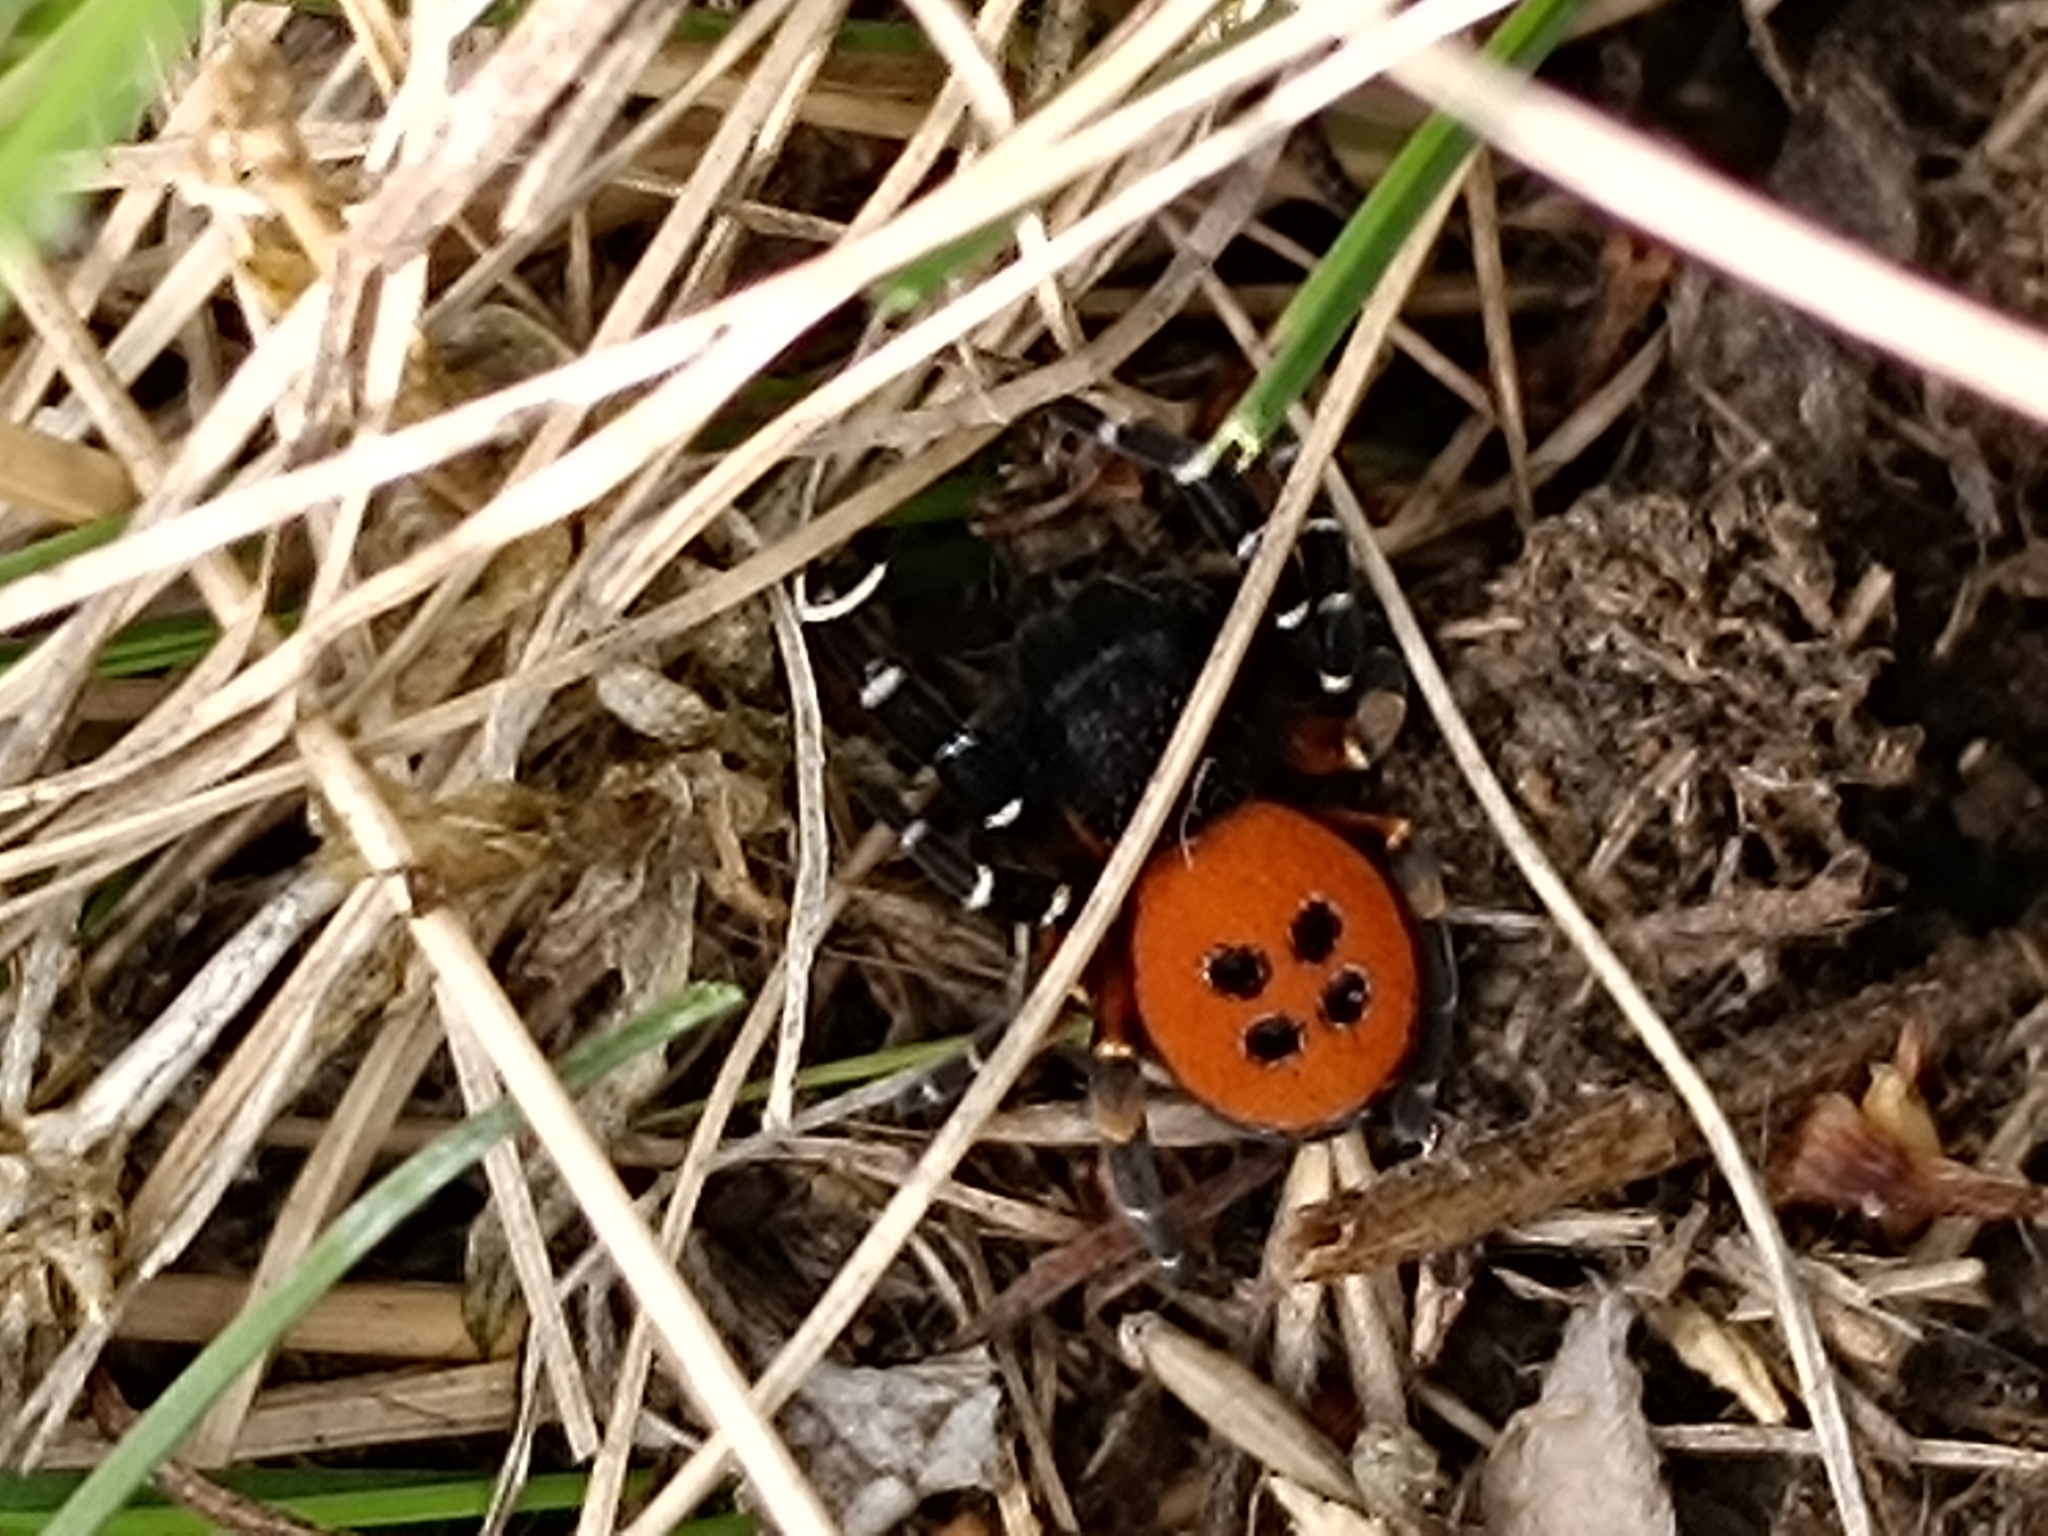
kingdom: Animalia
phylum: Arthropoda
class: Arachnida
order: Araneae
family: Eresidae
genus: Eresus
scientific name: Eresus kollari
